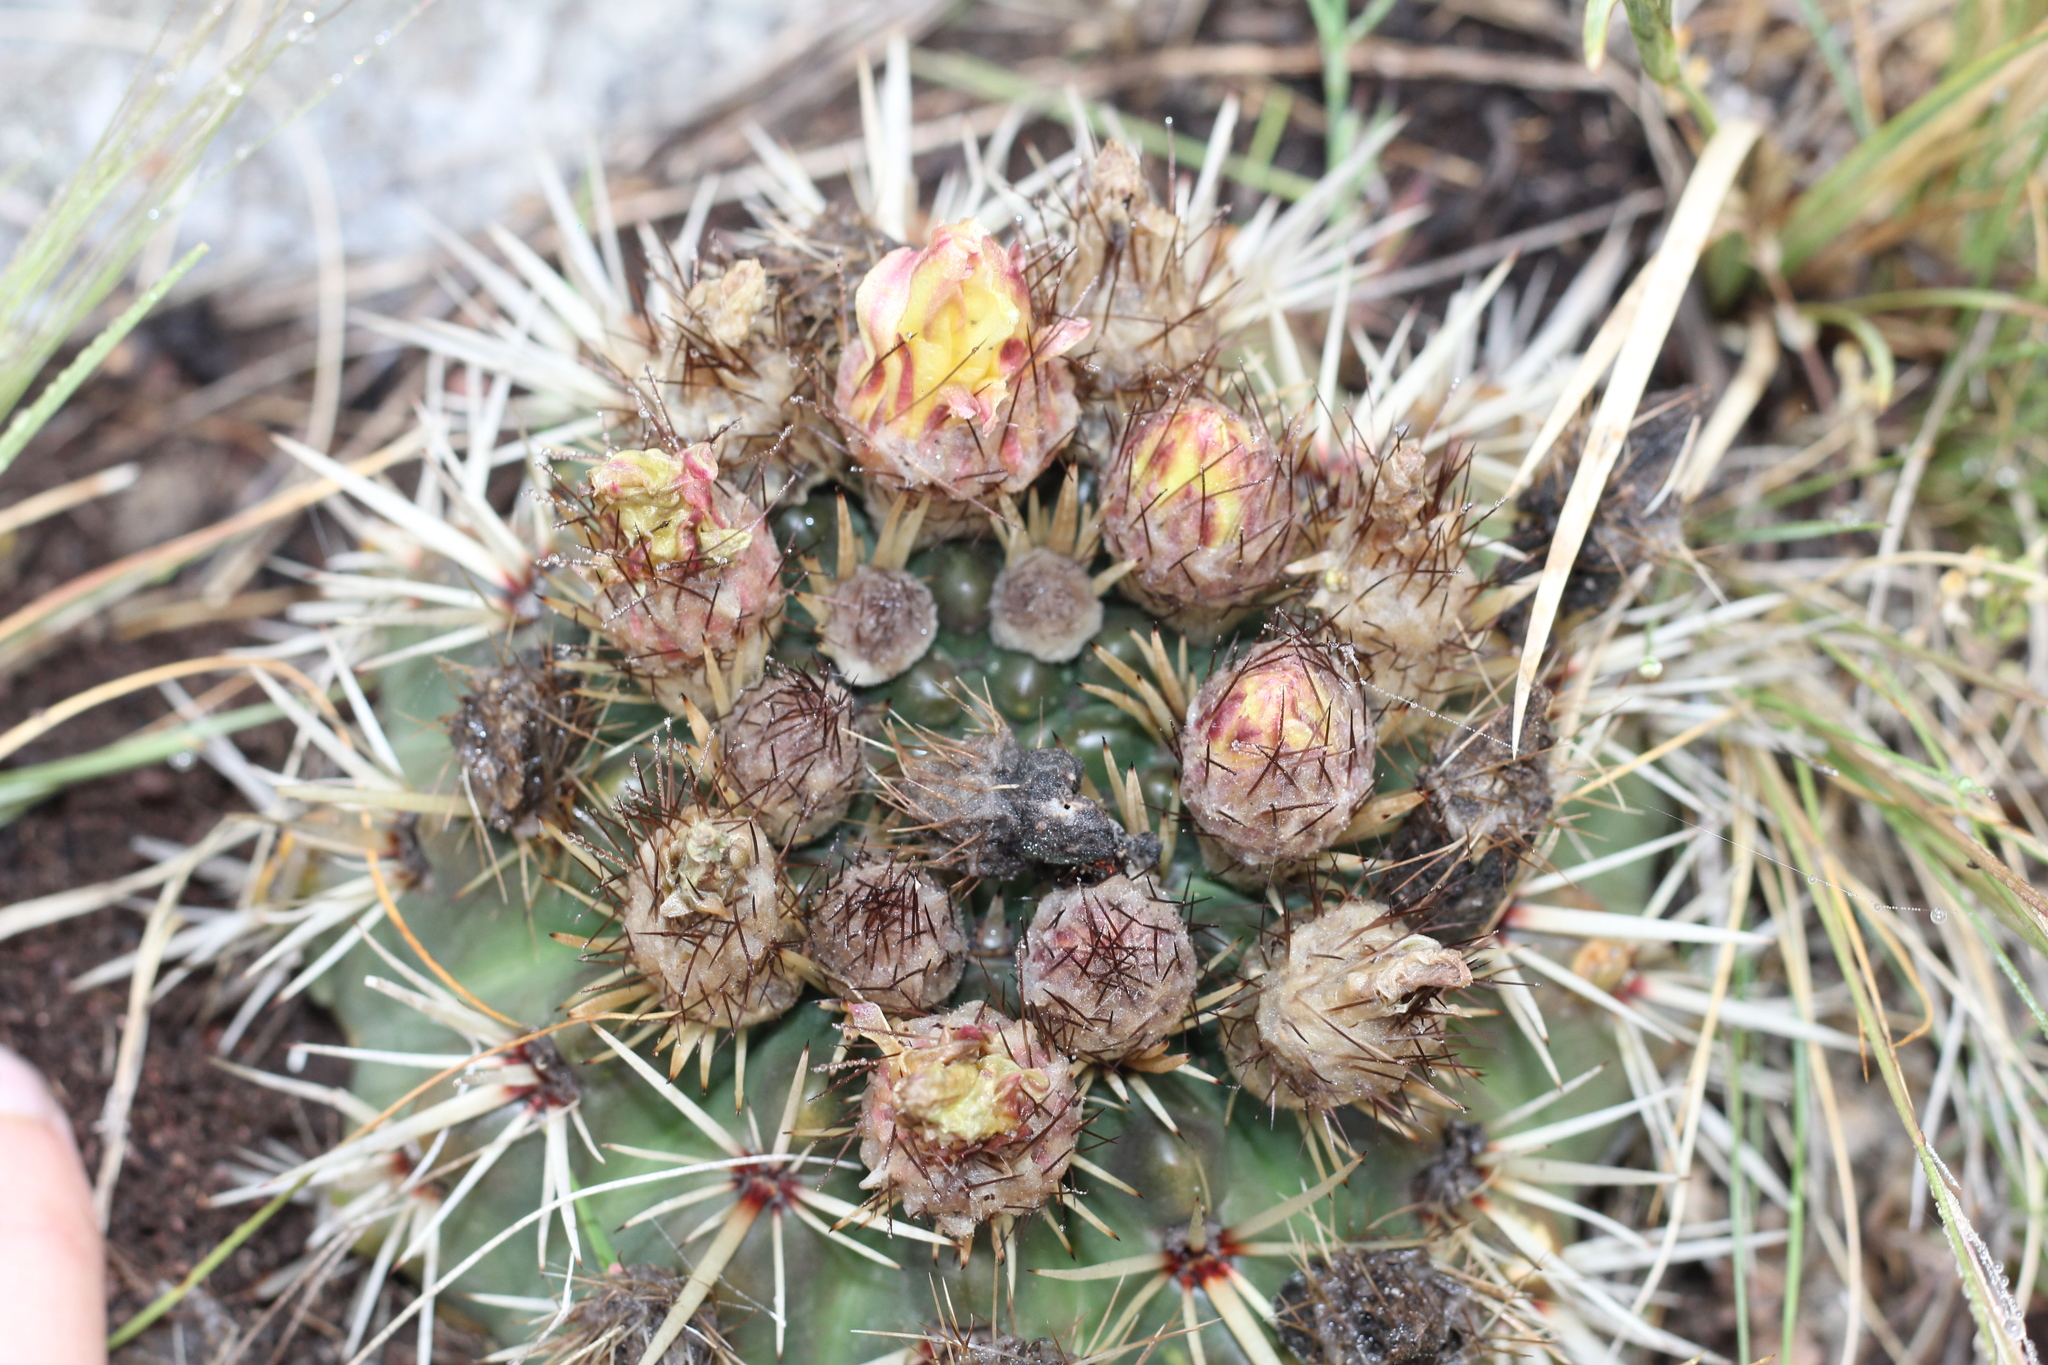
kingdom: Plantae
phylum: Tracheophyta
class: Magnoliopsida
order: Caryophyllales
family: Cactaceae
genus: Parodia
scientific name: Parodia mammulosa
